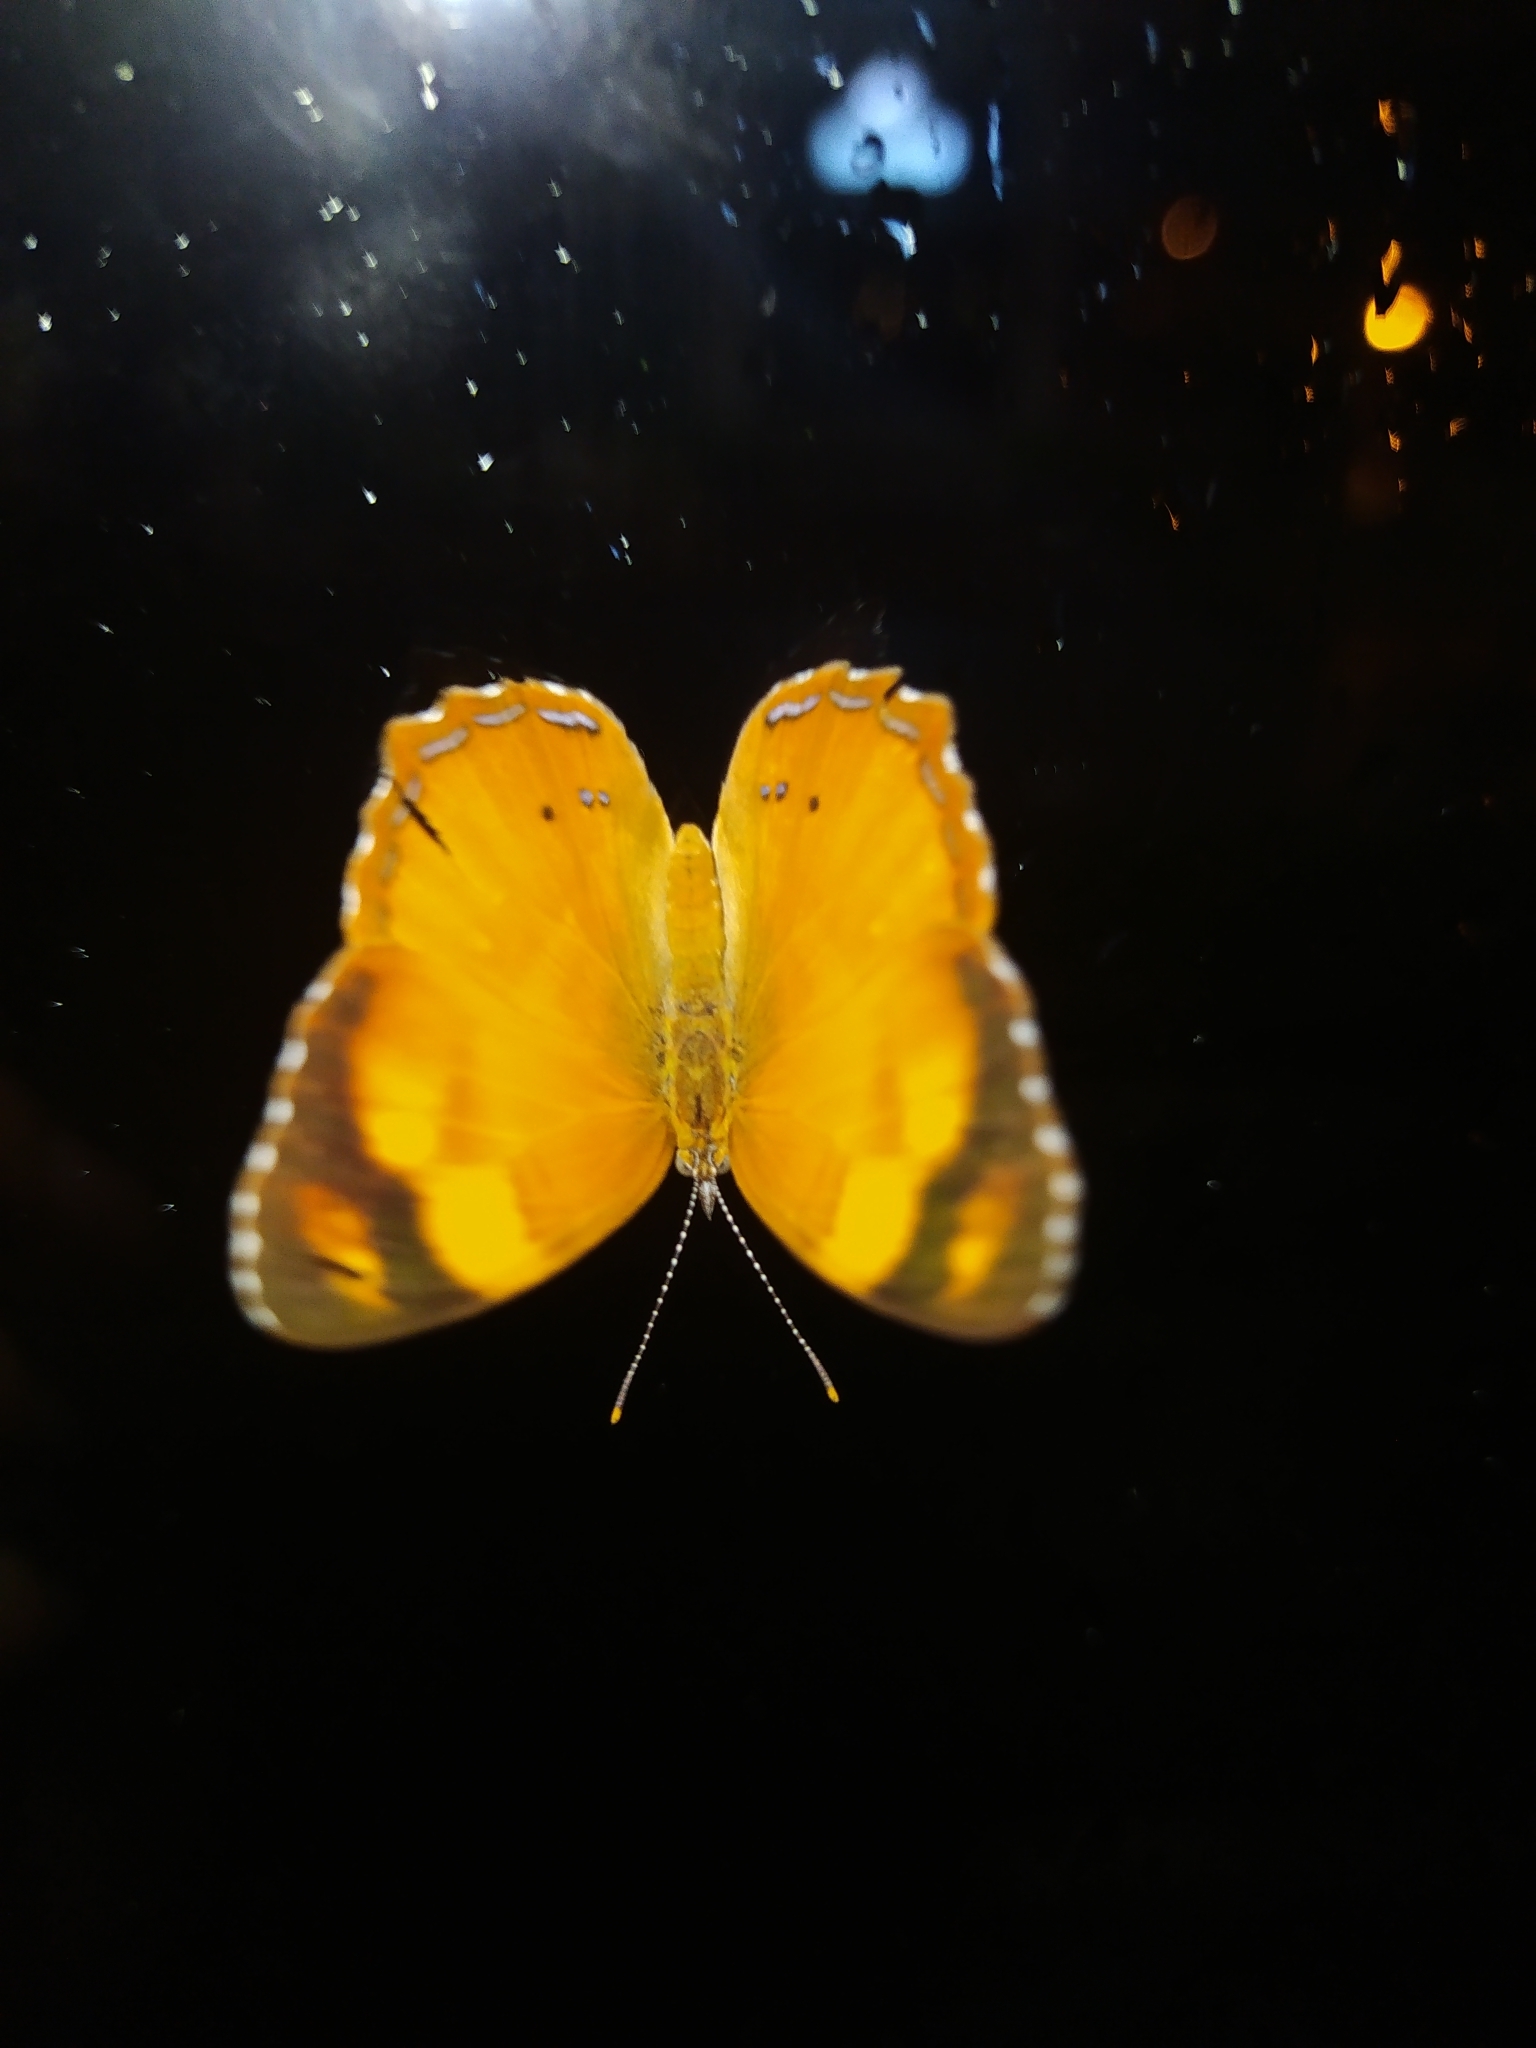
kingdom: Animalia
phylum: Arthropoda
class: Insecta
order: Lepidoptera
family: Nymphalidae
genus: Nica
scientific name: Nica flavilla
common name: Mandarin nica
